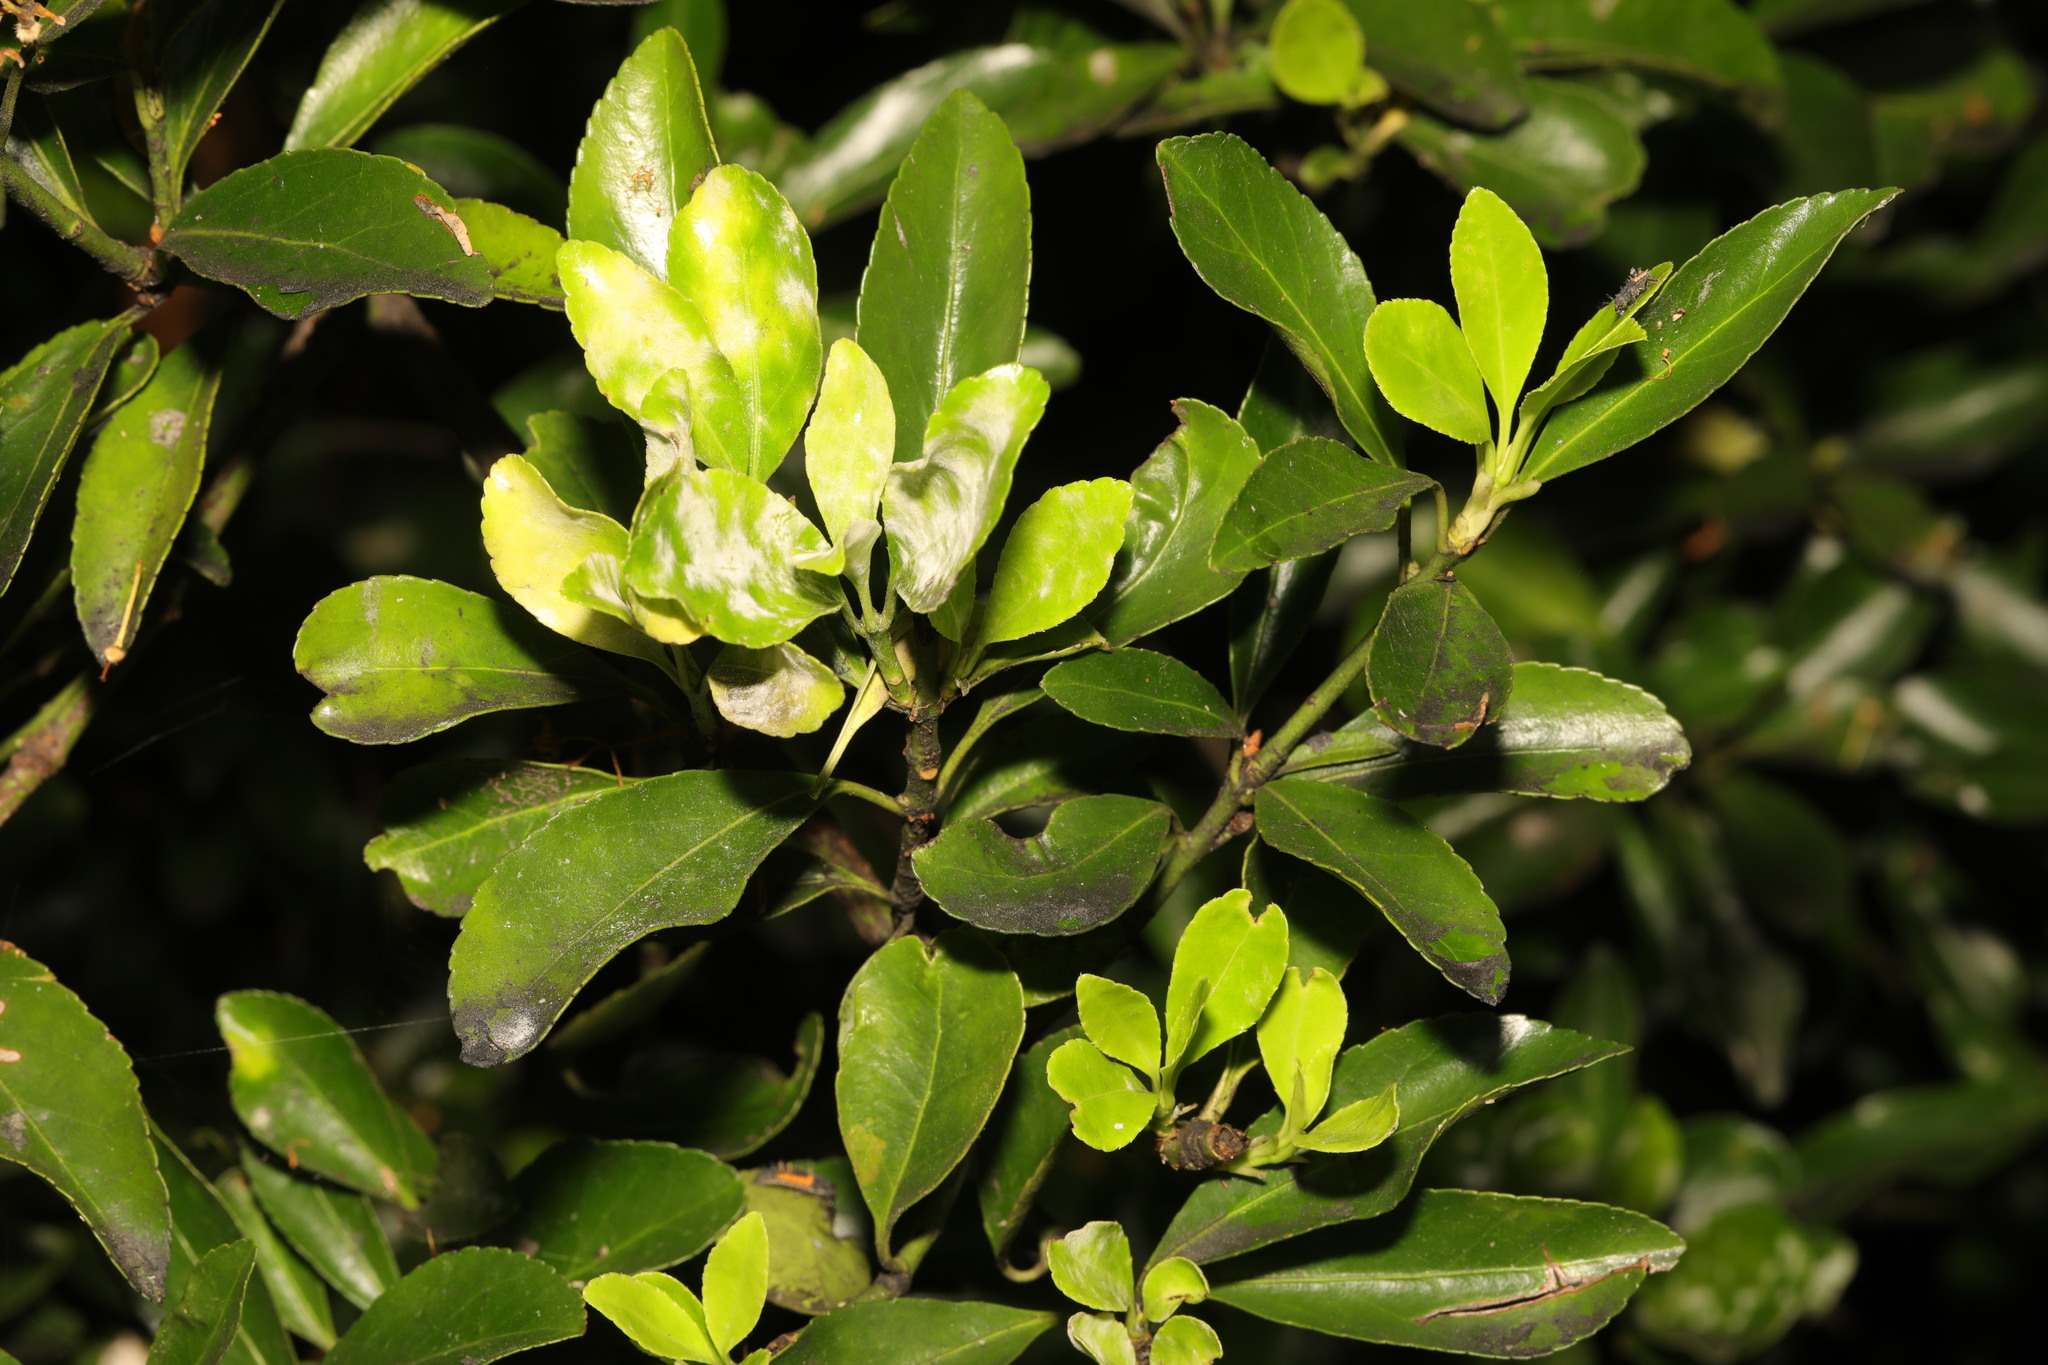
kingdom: Plantae
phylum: Tracheophyta
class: Magnoliopsida
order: Celastrales
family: Celastraceae
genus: Euonymus
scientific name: Euonymus japonicus
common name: Japanese spindletree
